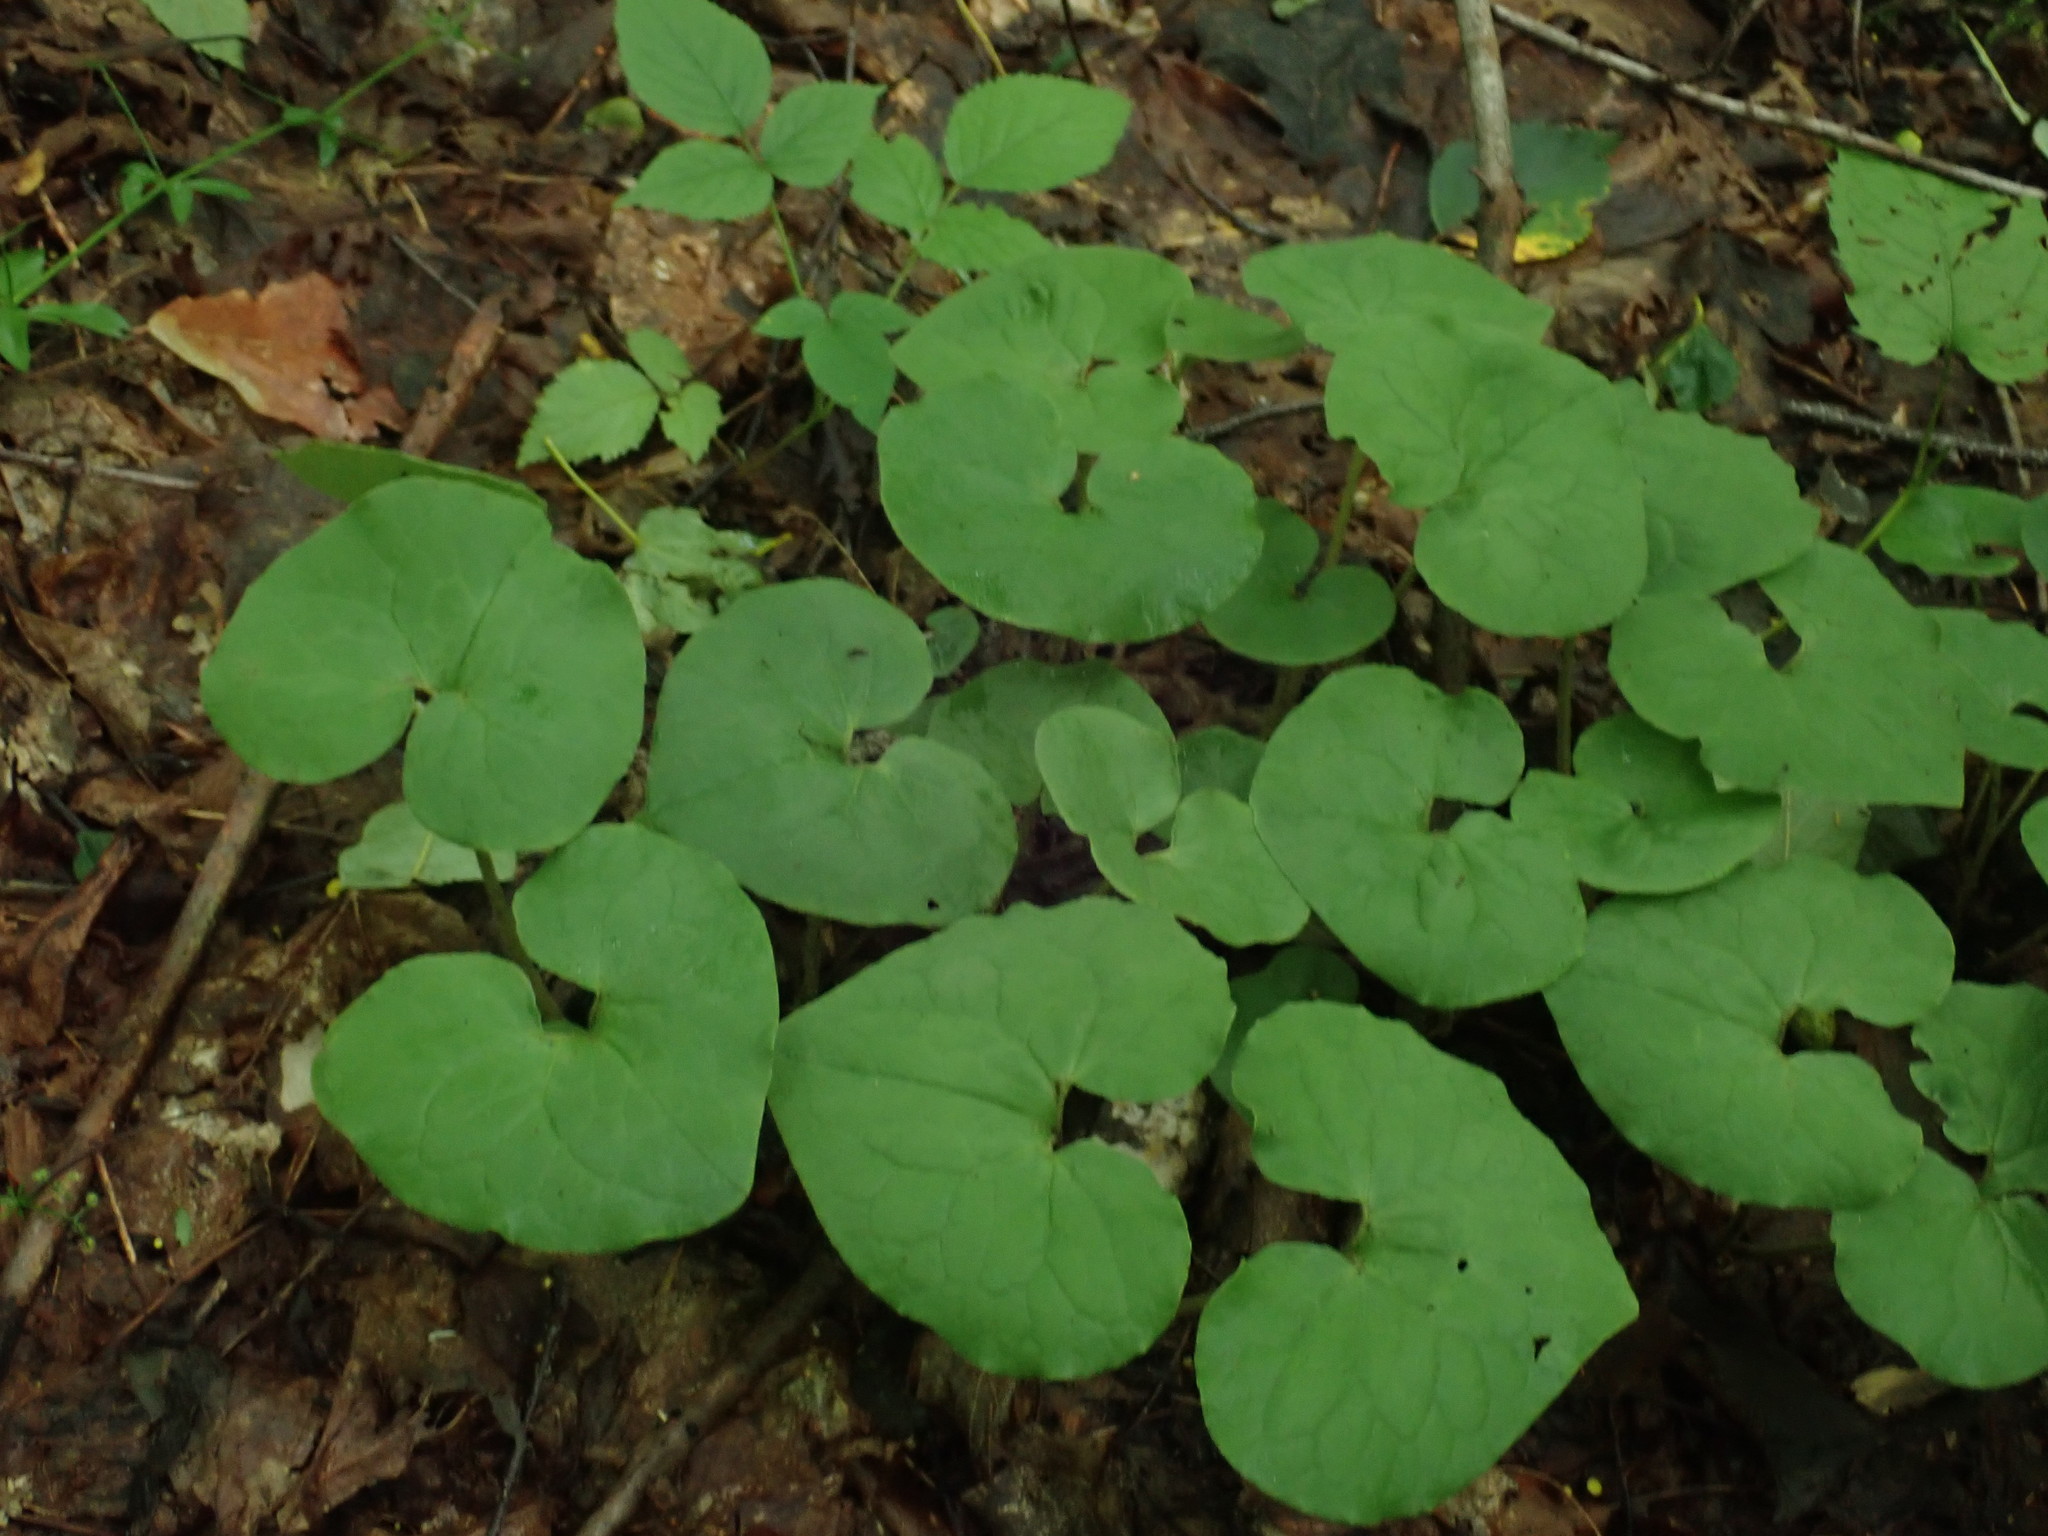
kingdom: Plantae
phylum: Tracheophyta
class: Magnoliopsida
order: Piperales
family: Aristolochiaceae
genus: Asarum
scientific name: Asarum canadense
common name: Wild ginger
